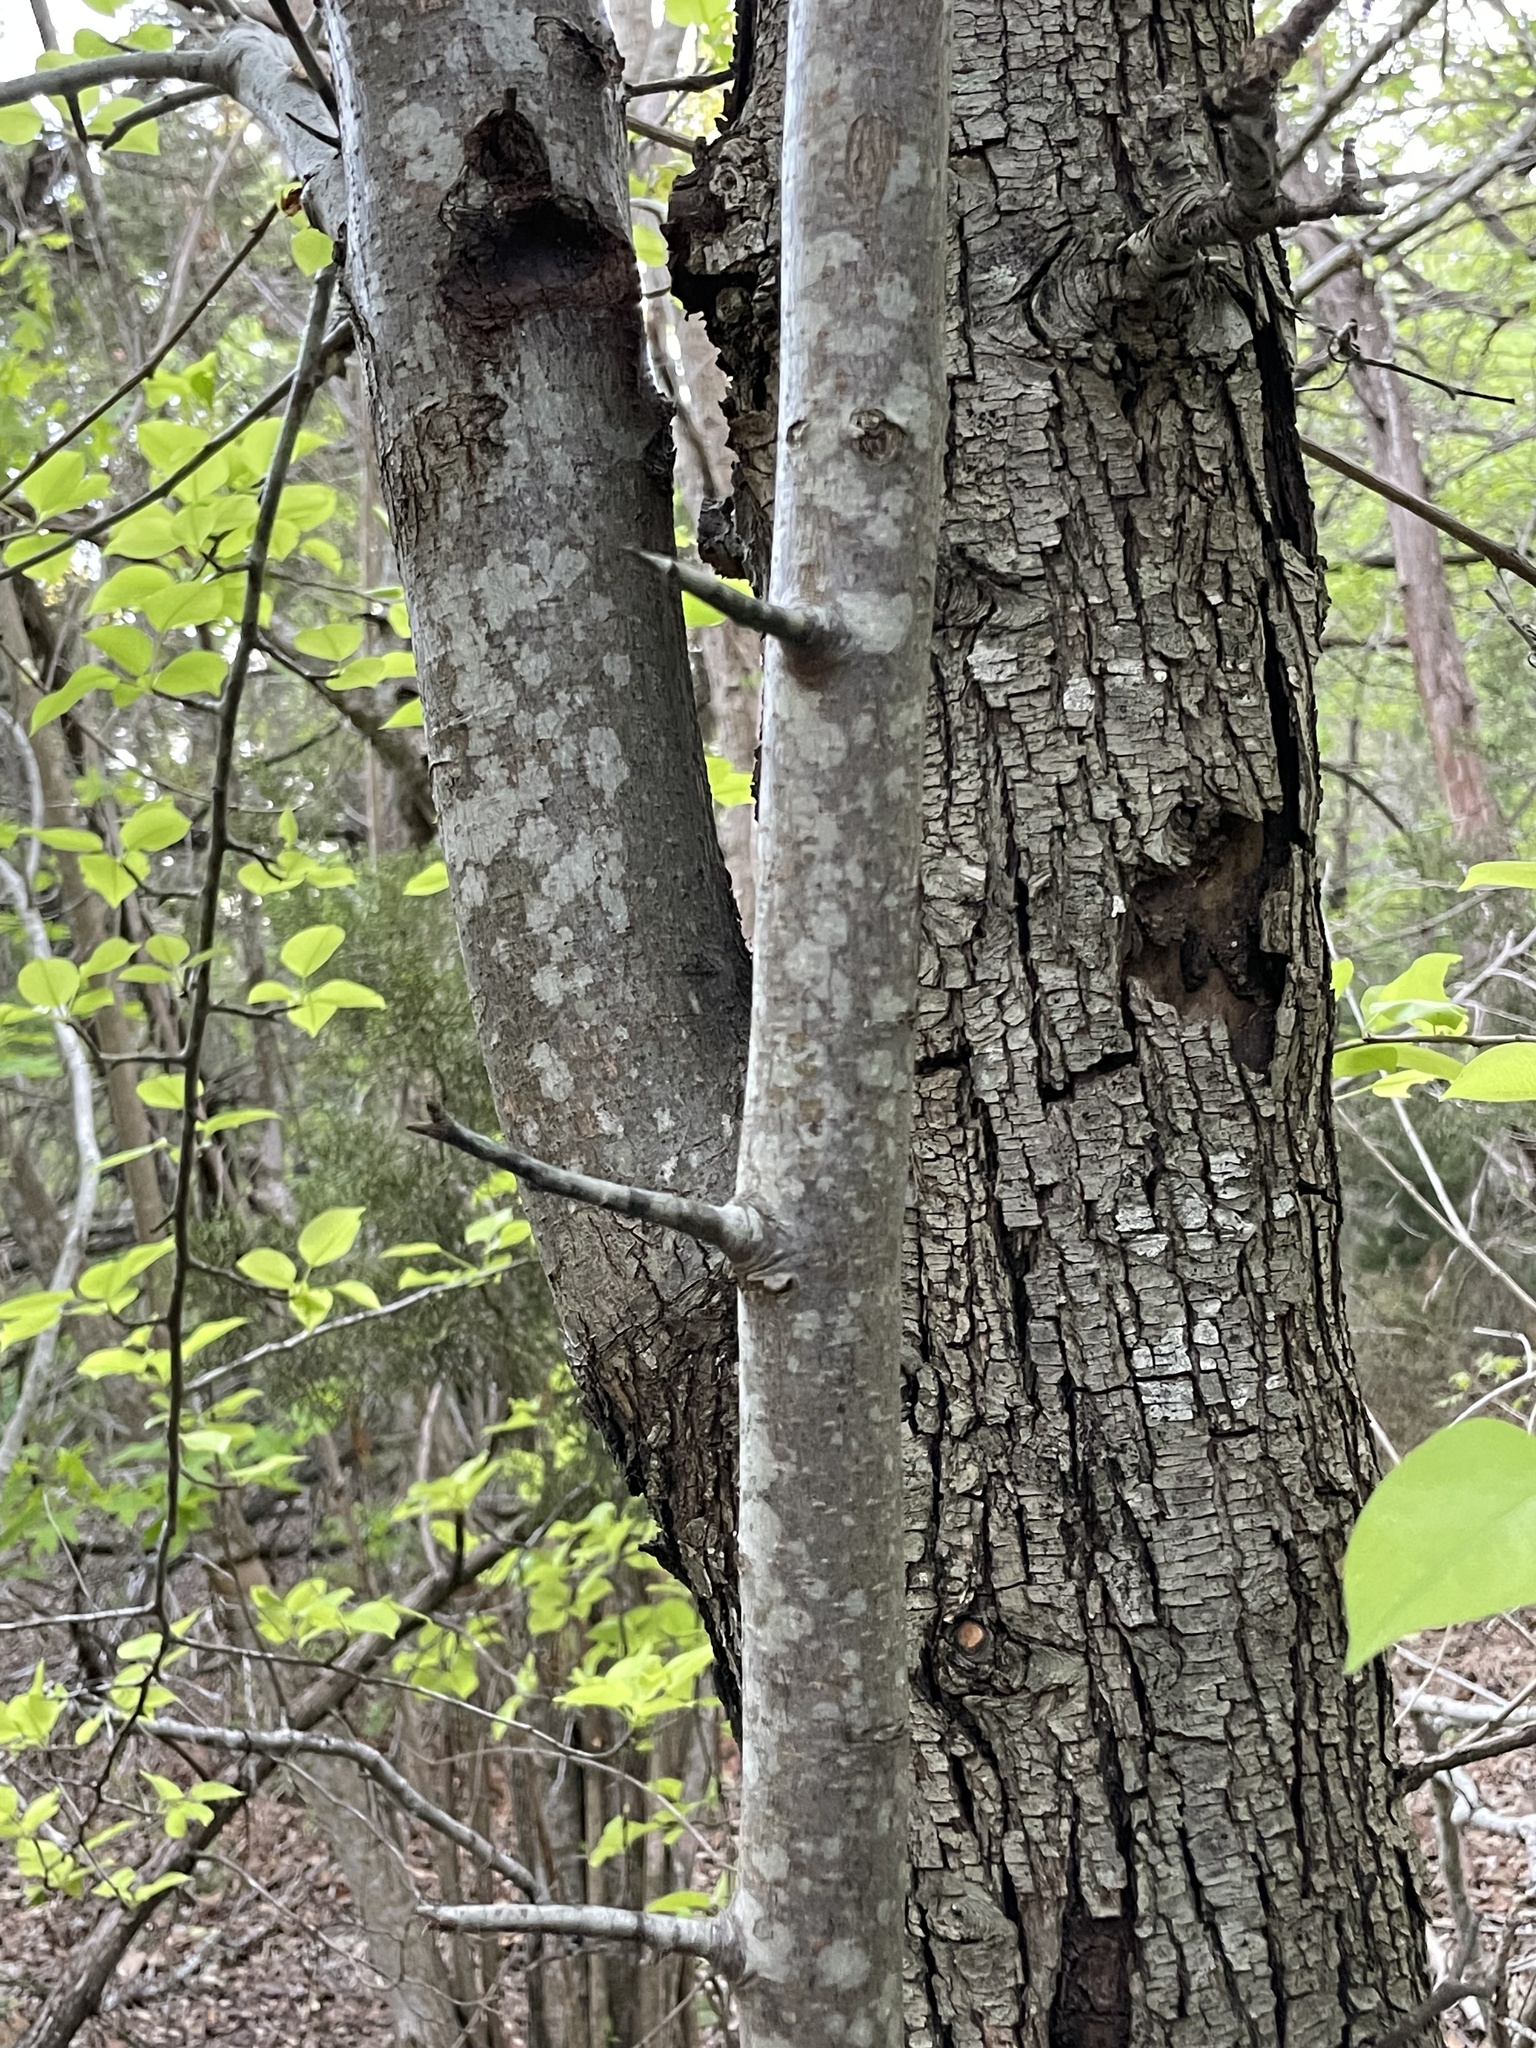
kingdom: Plantae
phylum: Tracheophyta
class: Magnoliopsida
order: Rosales
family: Rosaceae
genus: Pyrus
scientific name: Pyrus calleryana
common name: Callery pear
